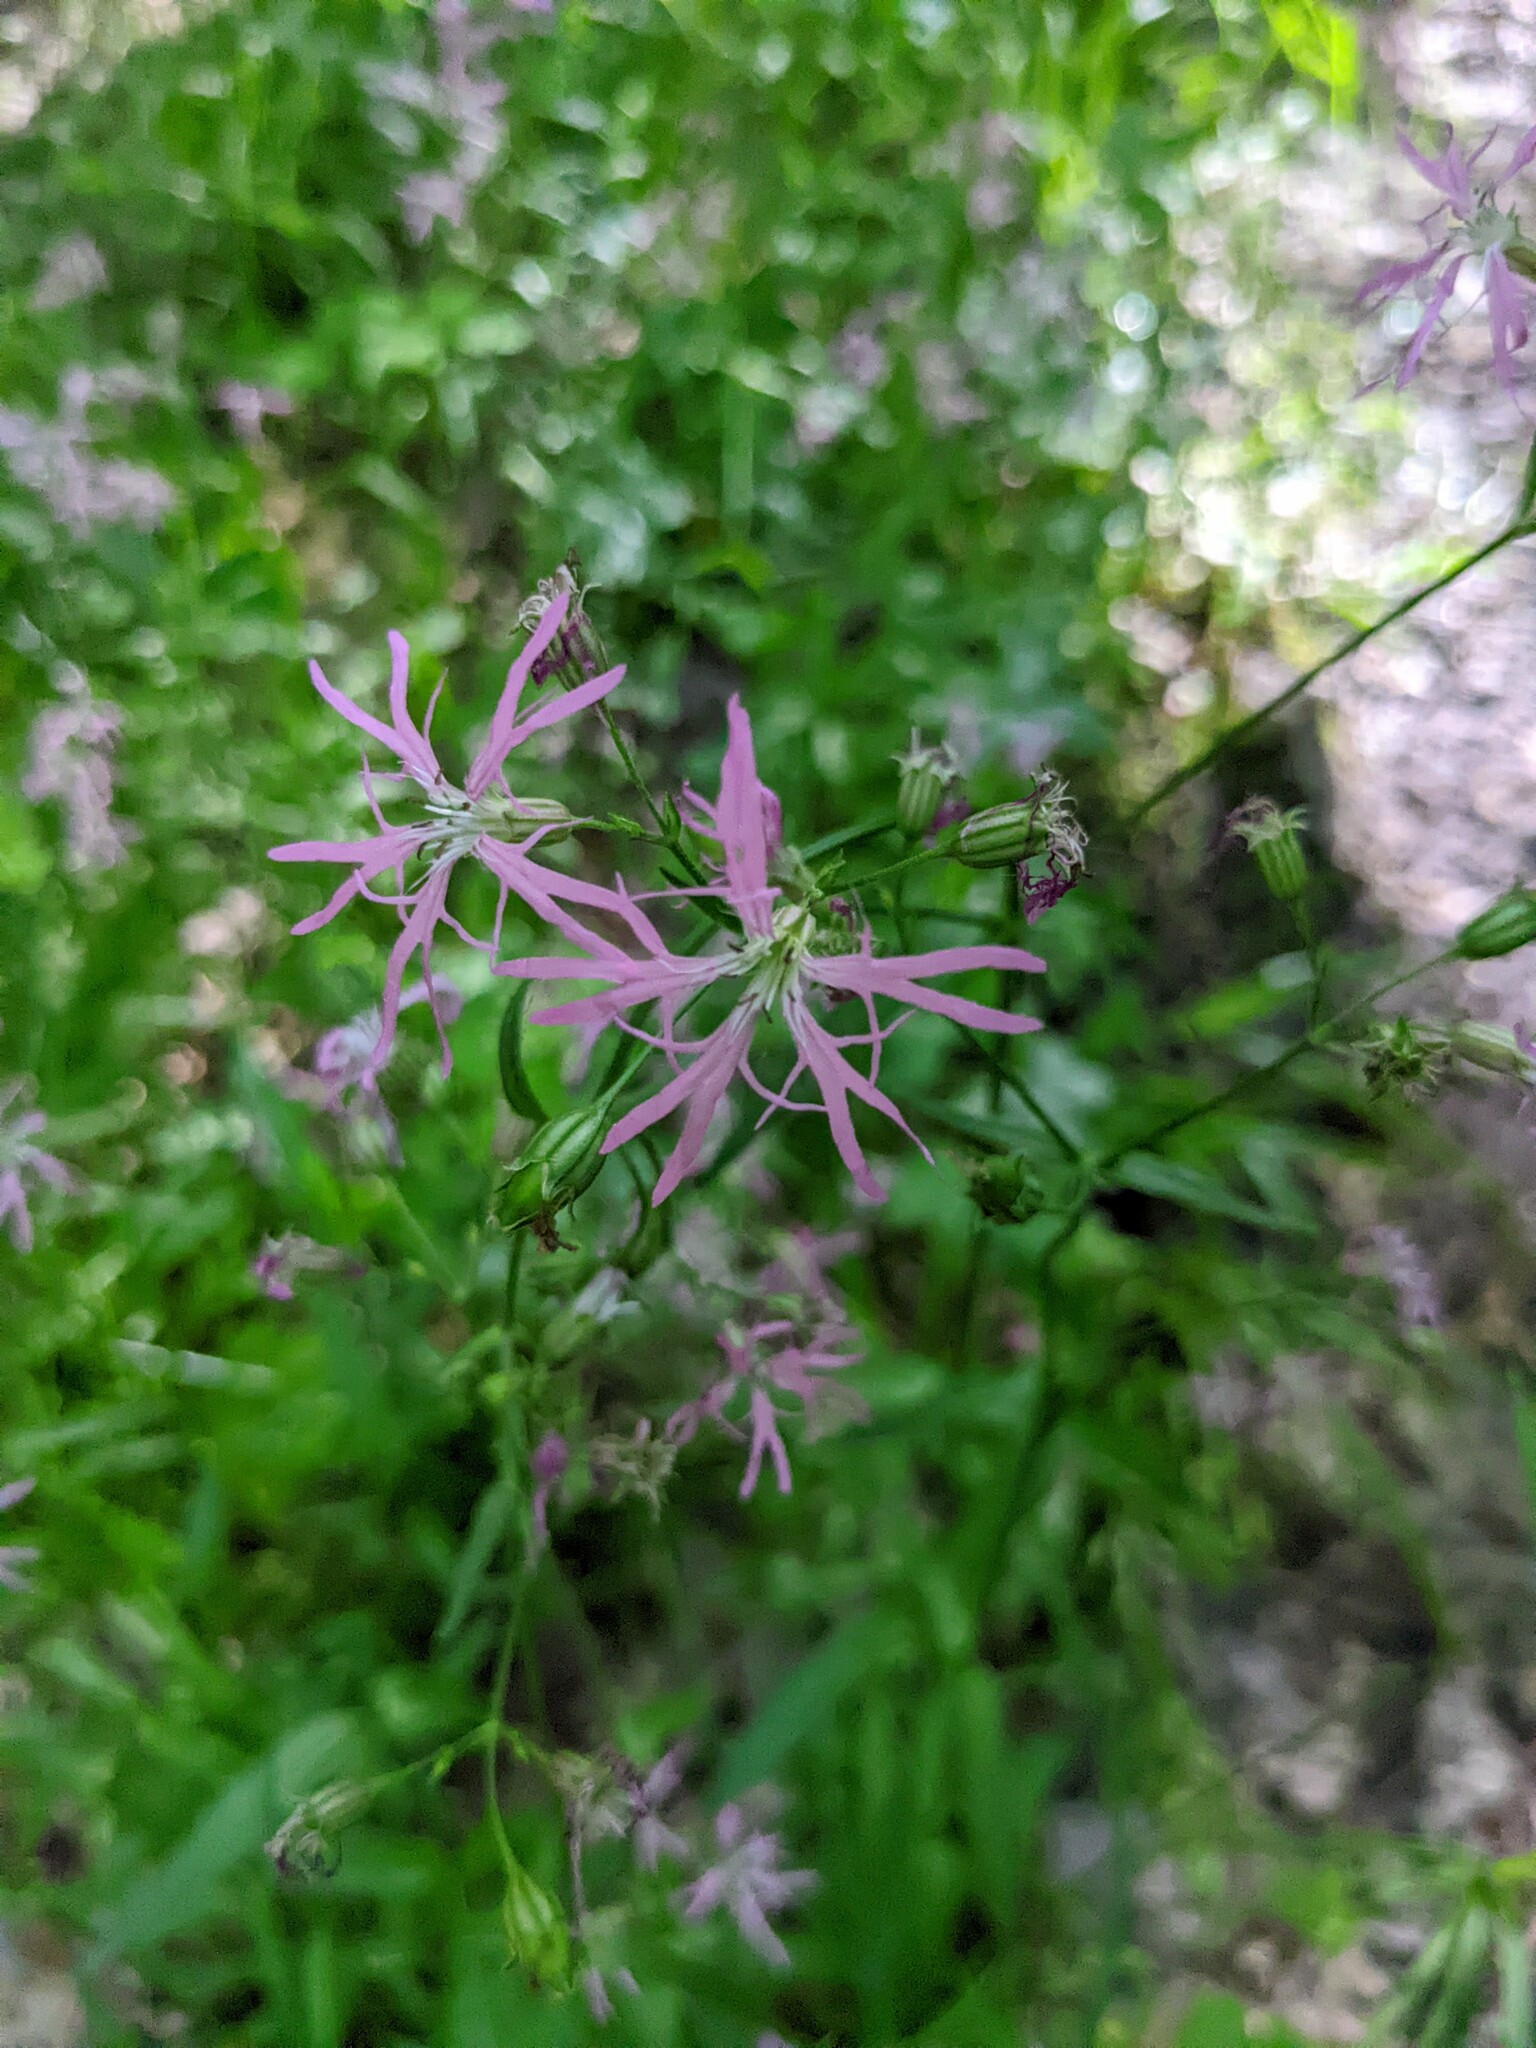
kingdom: Plantae
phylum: Tracheophyta
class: Magnoliopsida
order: Caryophyllales
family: Caryophyllaceae
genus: Silene
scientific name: Silene flos-cuculi
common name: Ragged-robin
